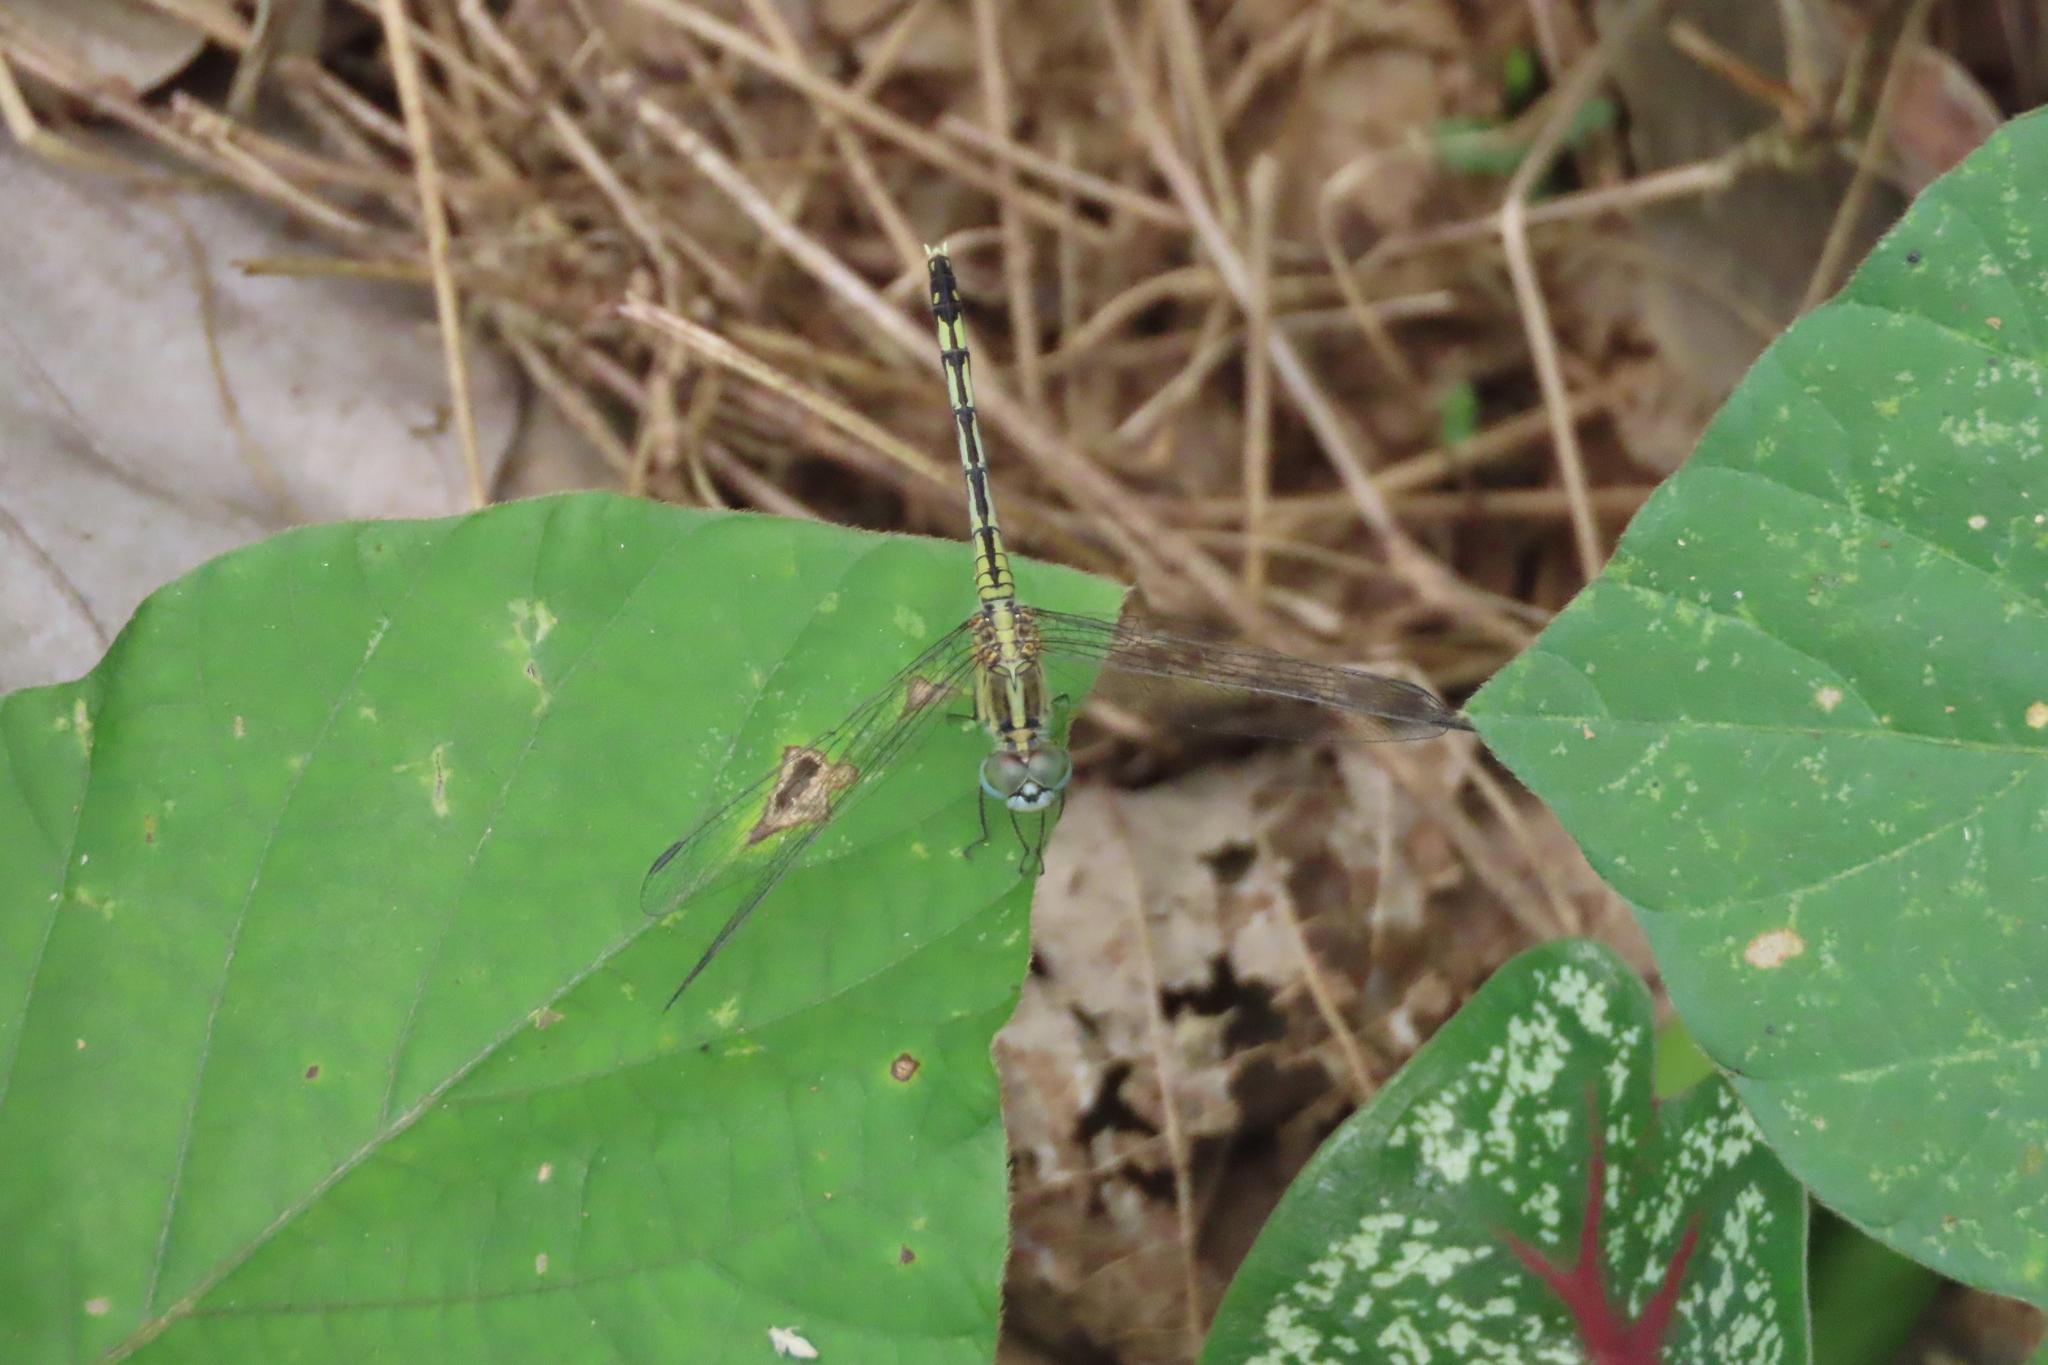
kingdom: Animalia
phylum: Arthropoda
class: Insecta
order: Odonata
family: Libellulidae
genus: Diplacodes
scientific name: Diplacodes trivialis
